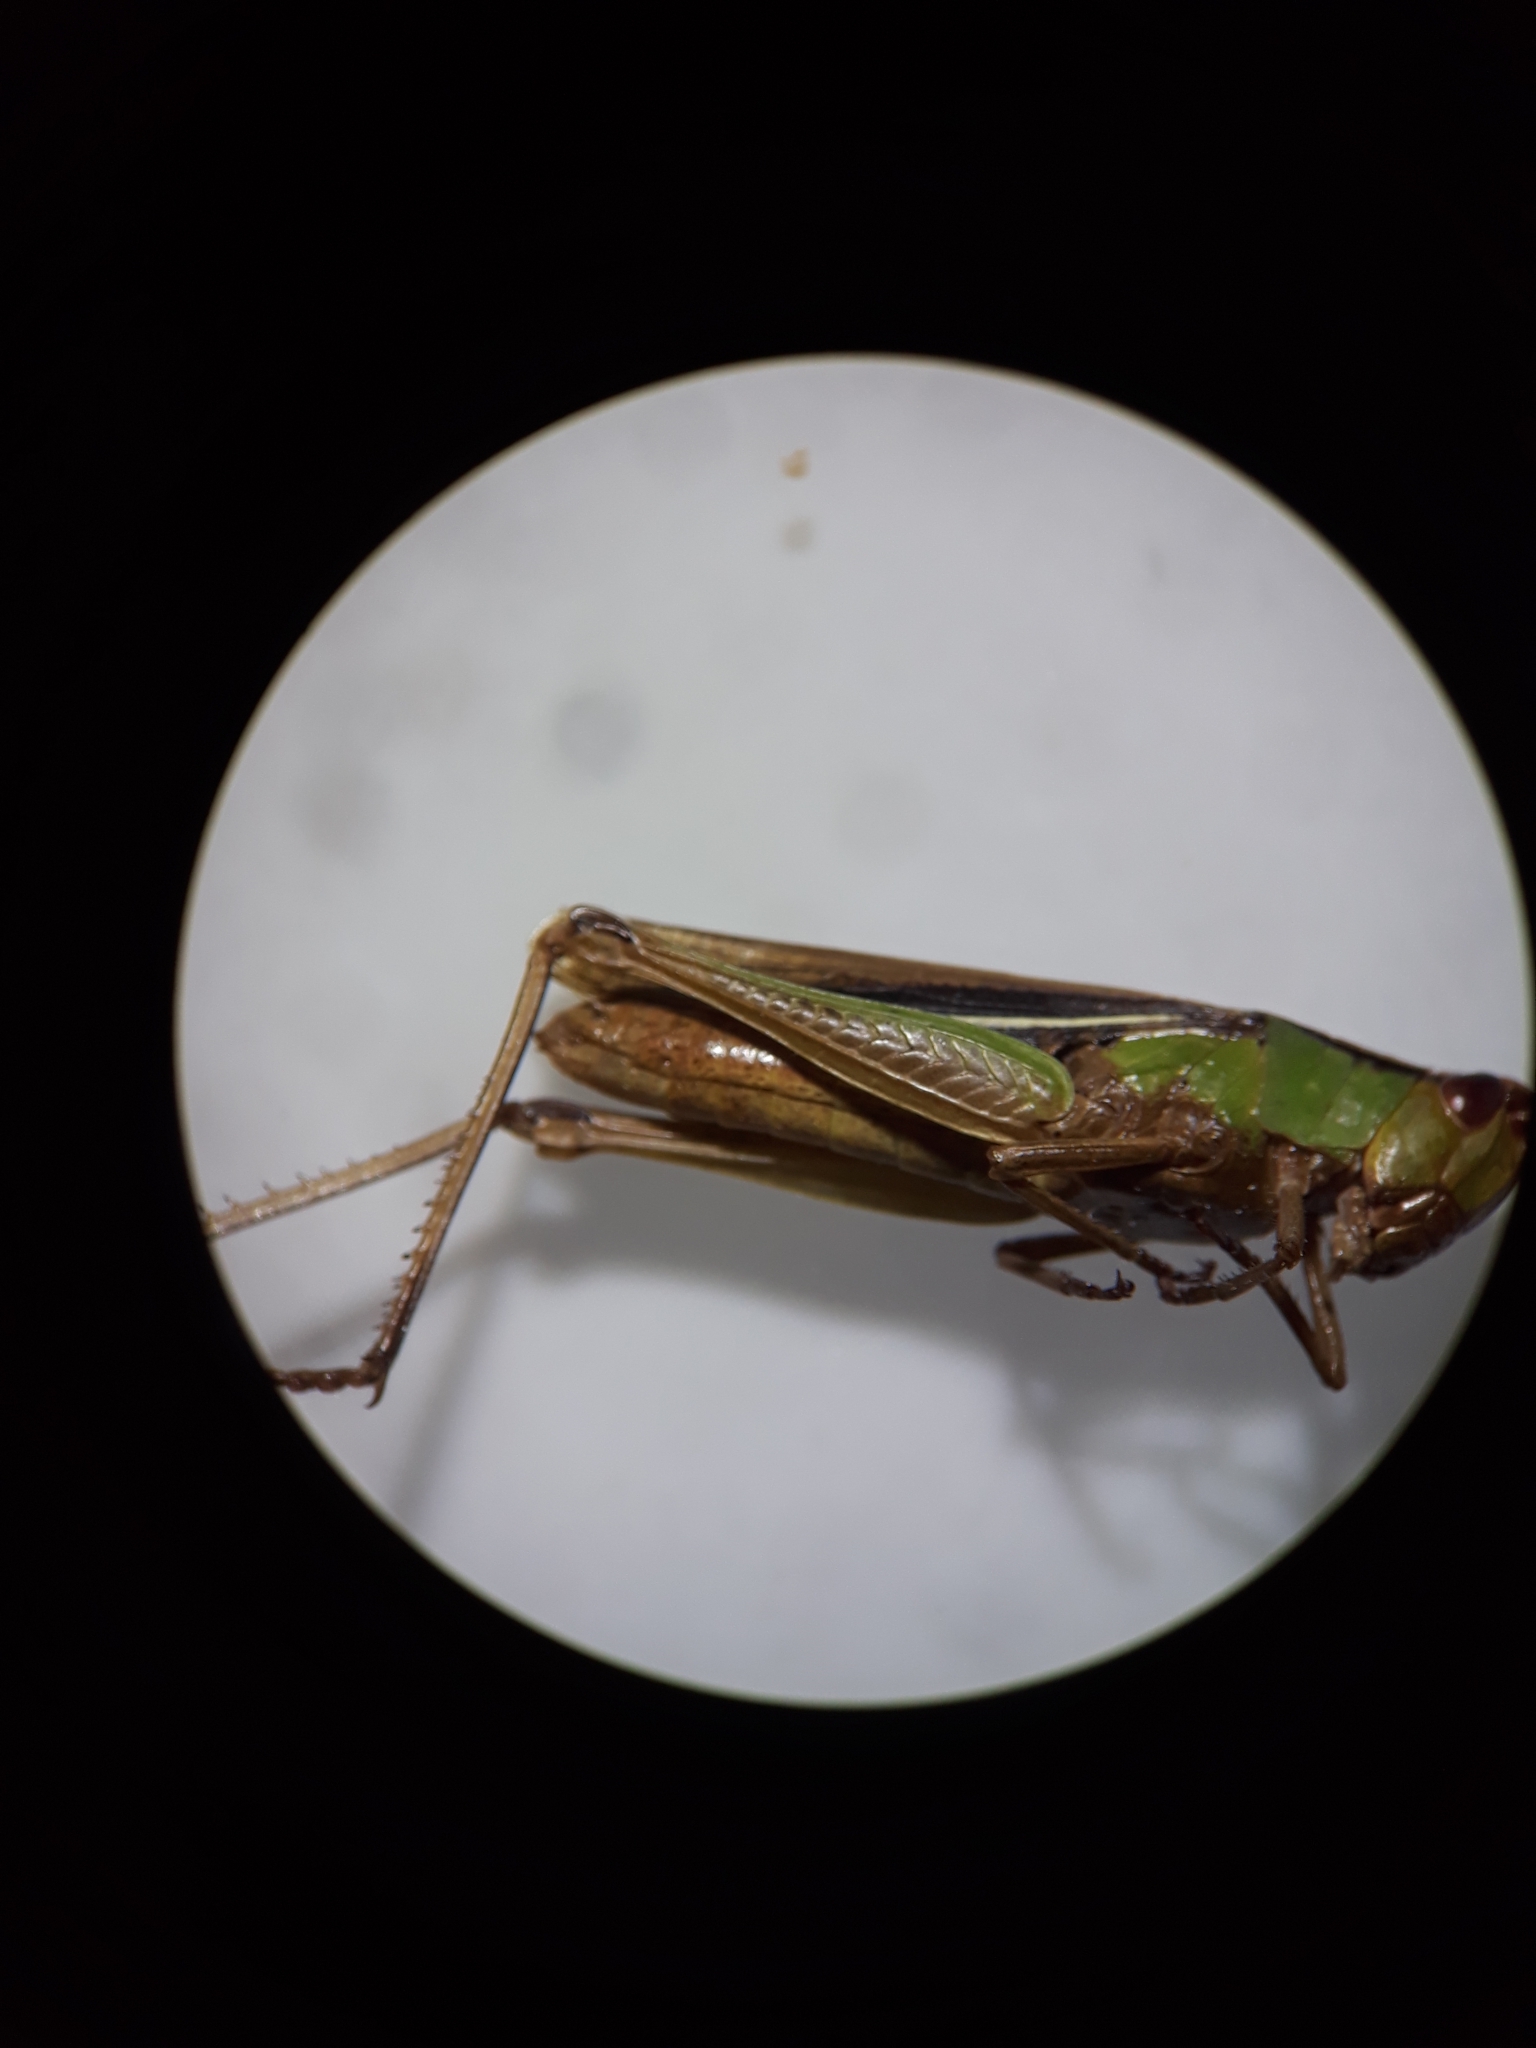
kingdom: Animalia
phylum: Arthropoda
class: Insecta
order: Orthoptera
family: Acrididae
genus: Chorthippus
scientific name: Chorthippus albomarginatus
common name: Lesser marsh grasshopper
